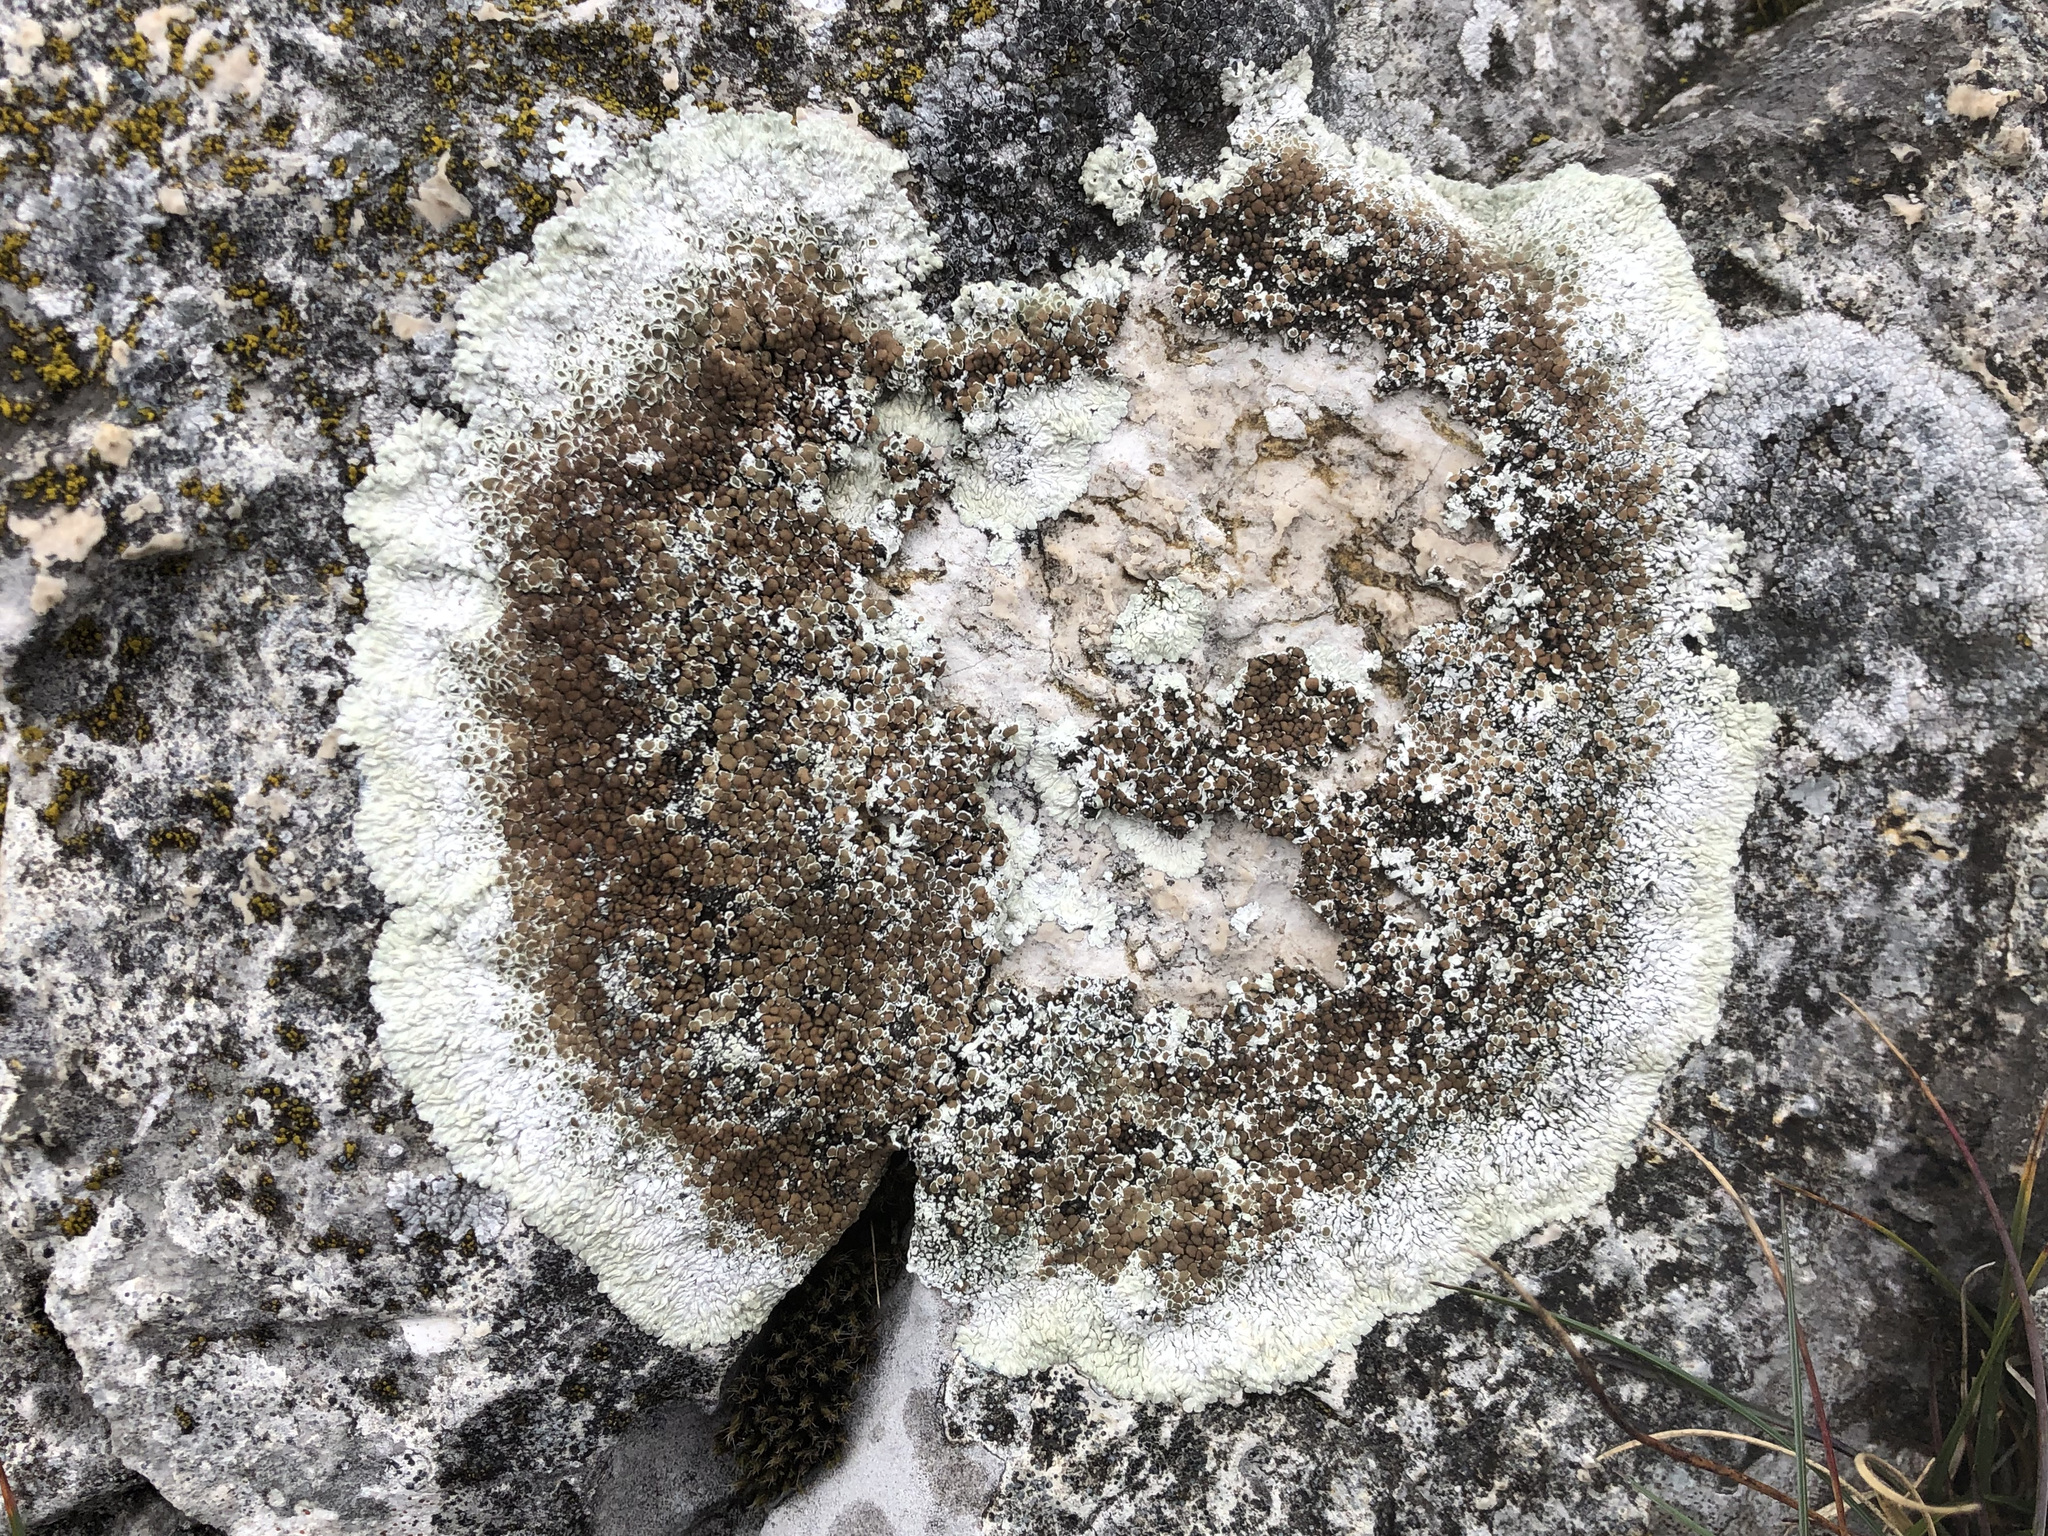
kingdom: Fungi
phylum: Ascomycota
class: Lecanoromycetes
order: Lecanorales
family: Lecanoraceae
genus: Protoparmeliopsis
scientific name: Protoparmeliopsis muralis
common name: Stonewall rim lichen
